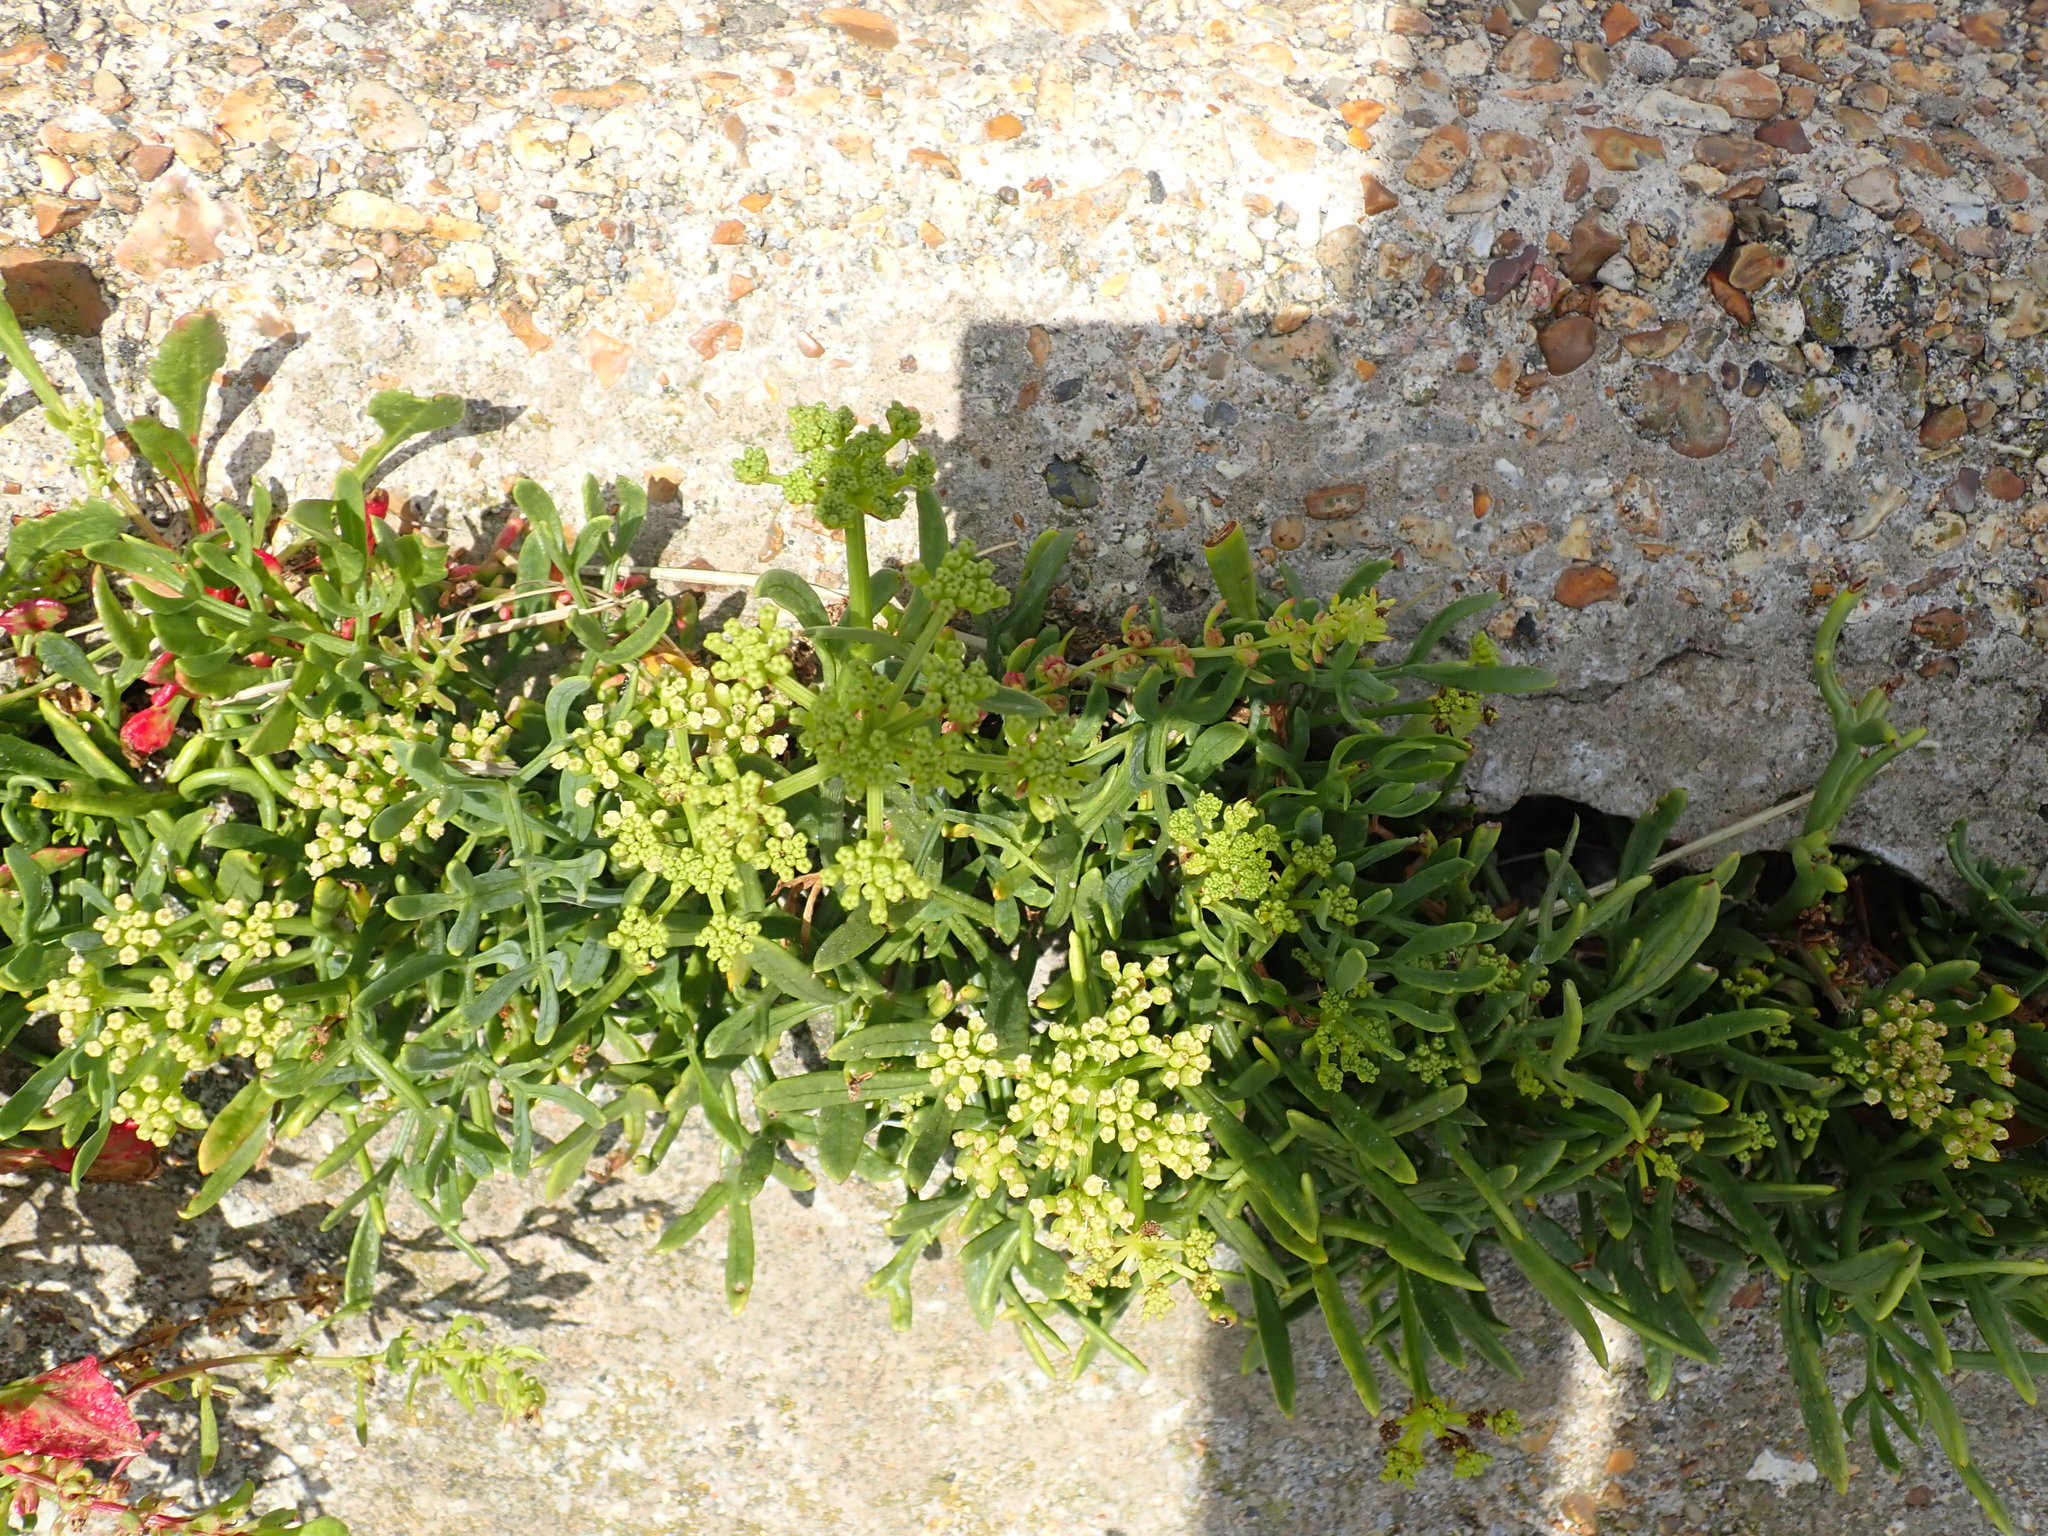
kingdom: Plantae
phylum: Tracheophyta
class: Magnoliopsida
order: Apiales
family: Apiaceae
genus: Crithmum
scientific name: Crithmum maritimum
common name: Rock samphire
